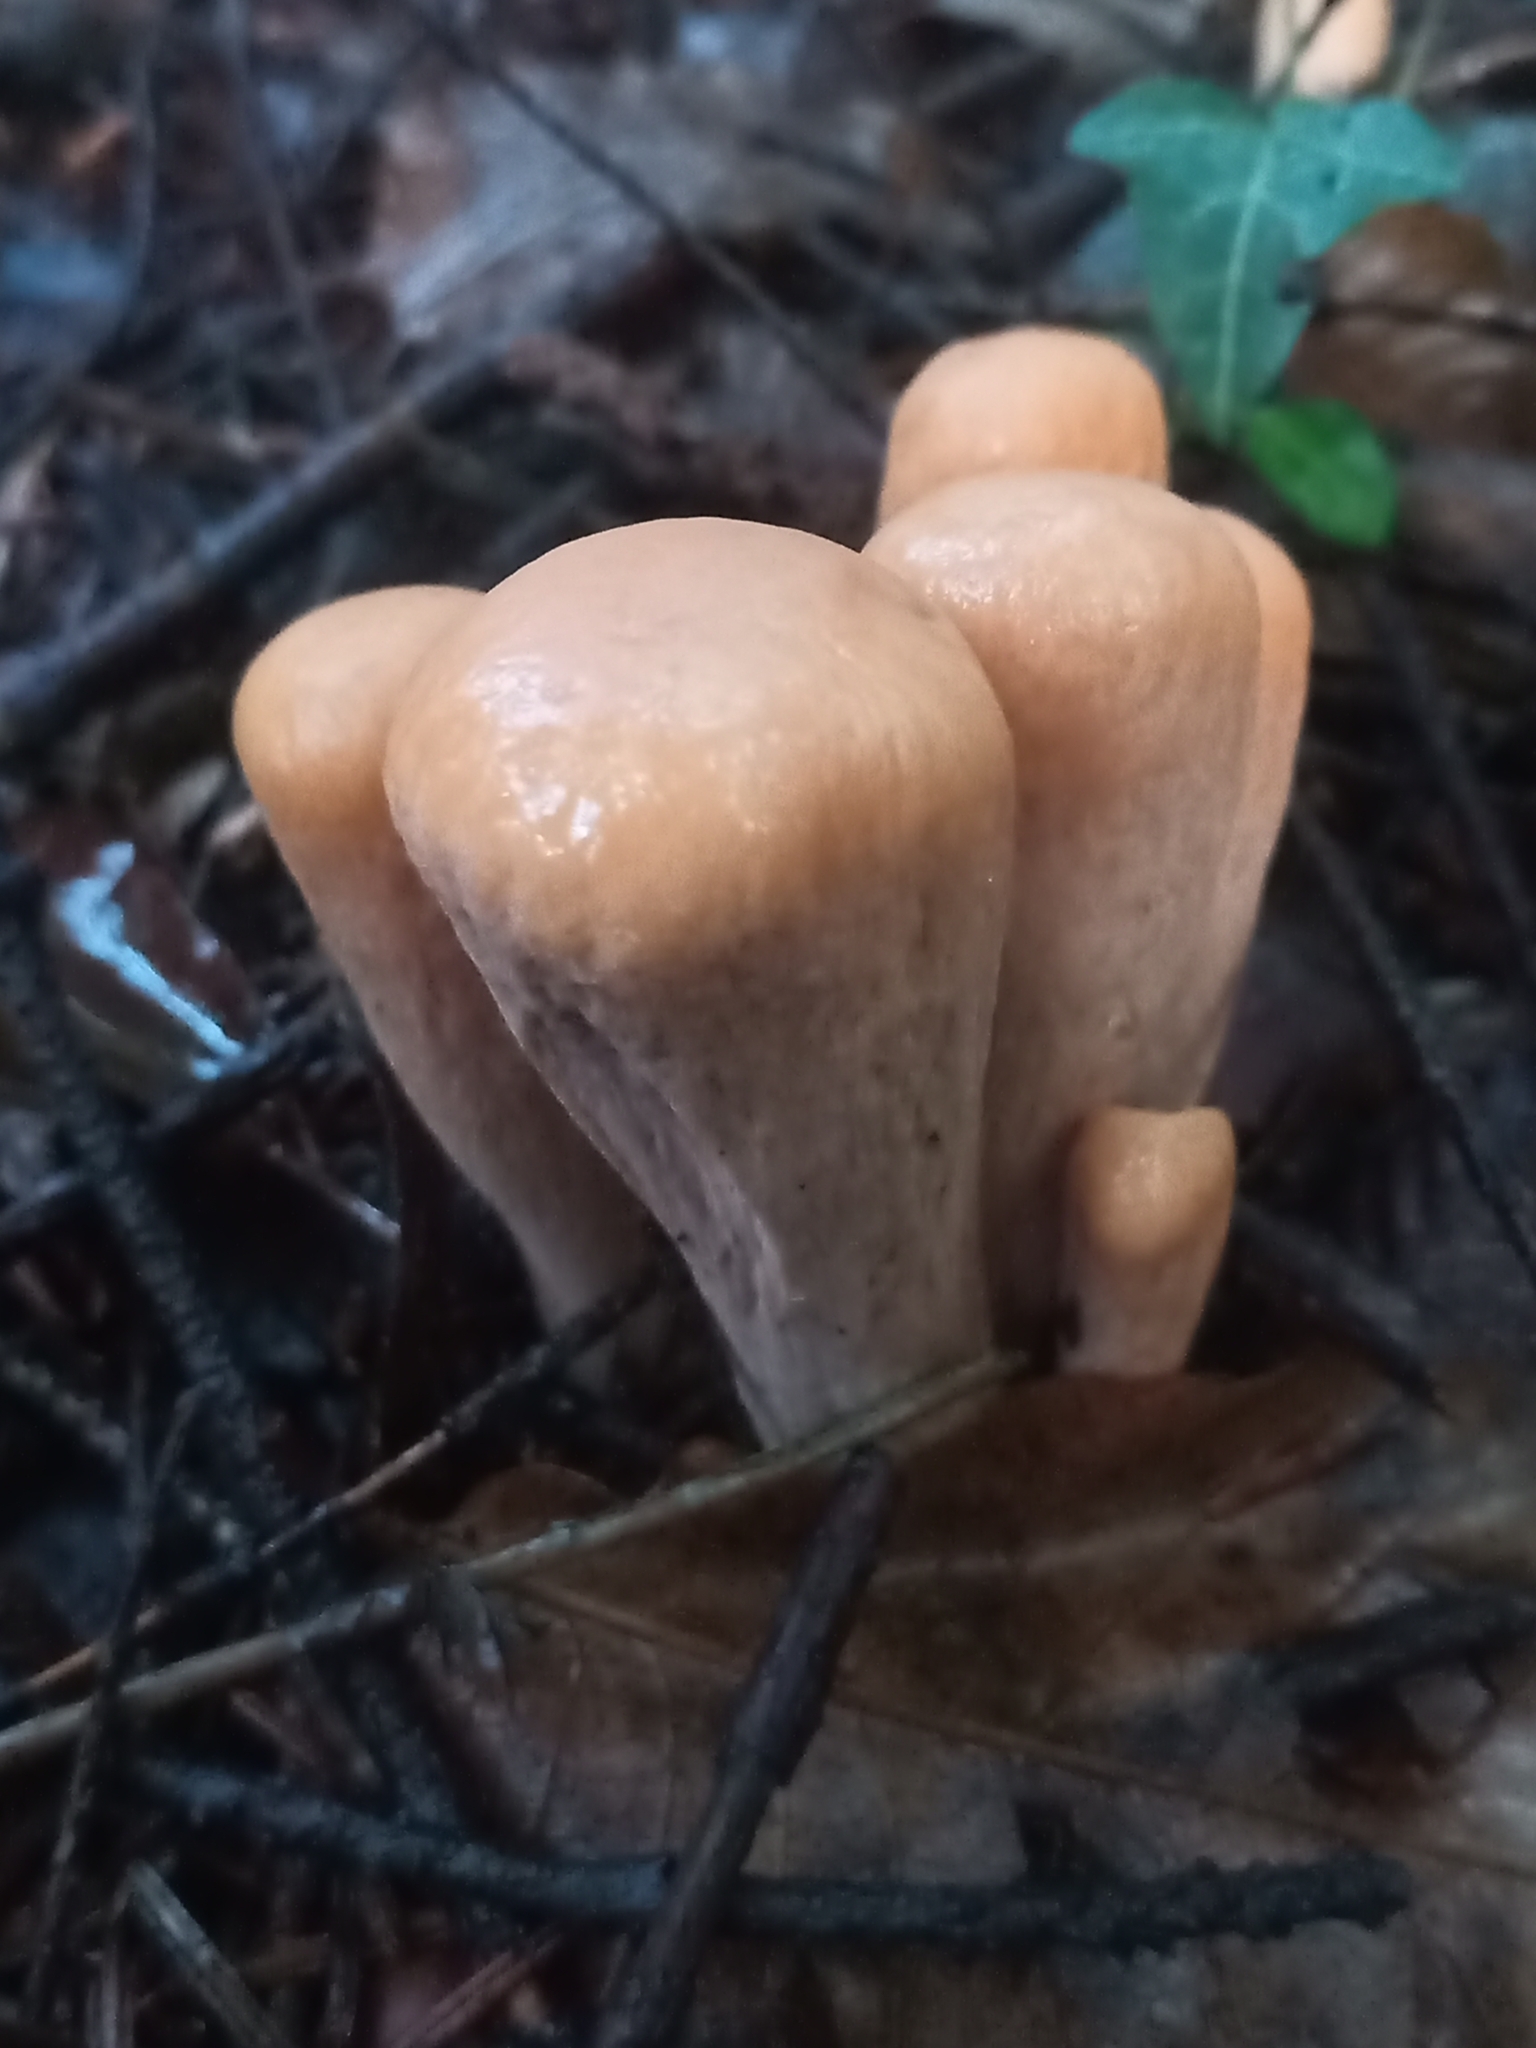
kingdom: Fungi
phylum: Basidiomycota
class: Agaricomycetes
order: Gomphales
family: Clavariadelphaceae
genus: Clavariadelphus
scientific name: Clavariadelphus pistillaris
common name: Giant club
